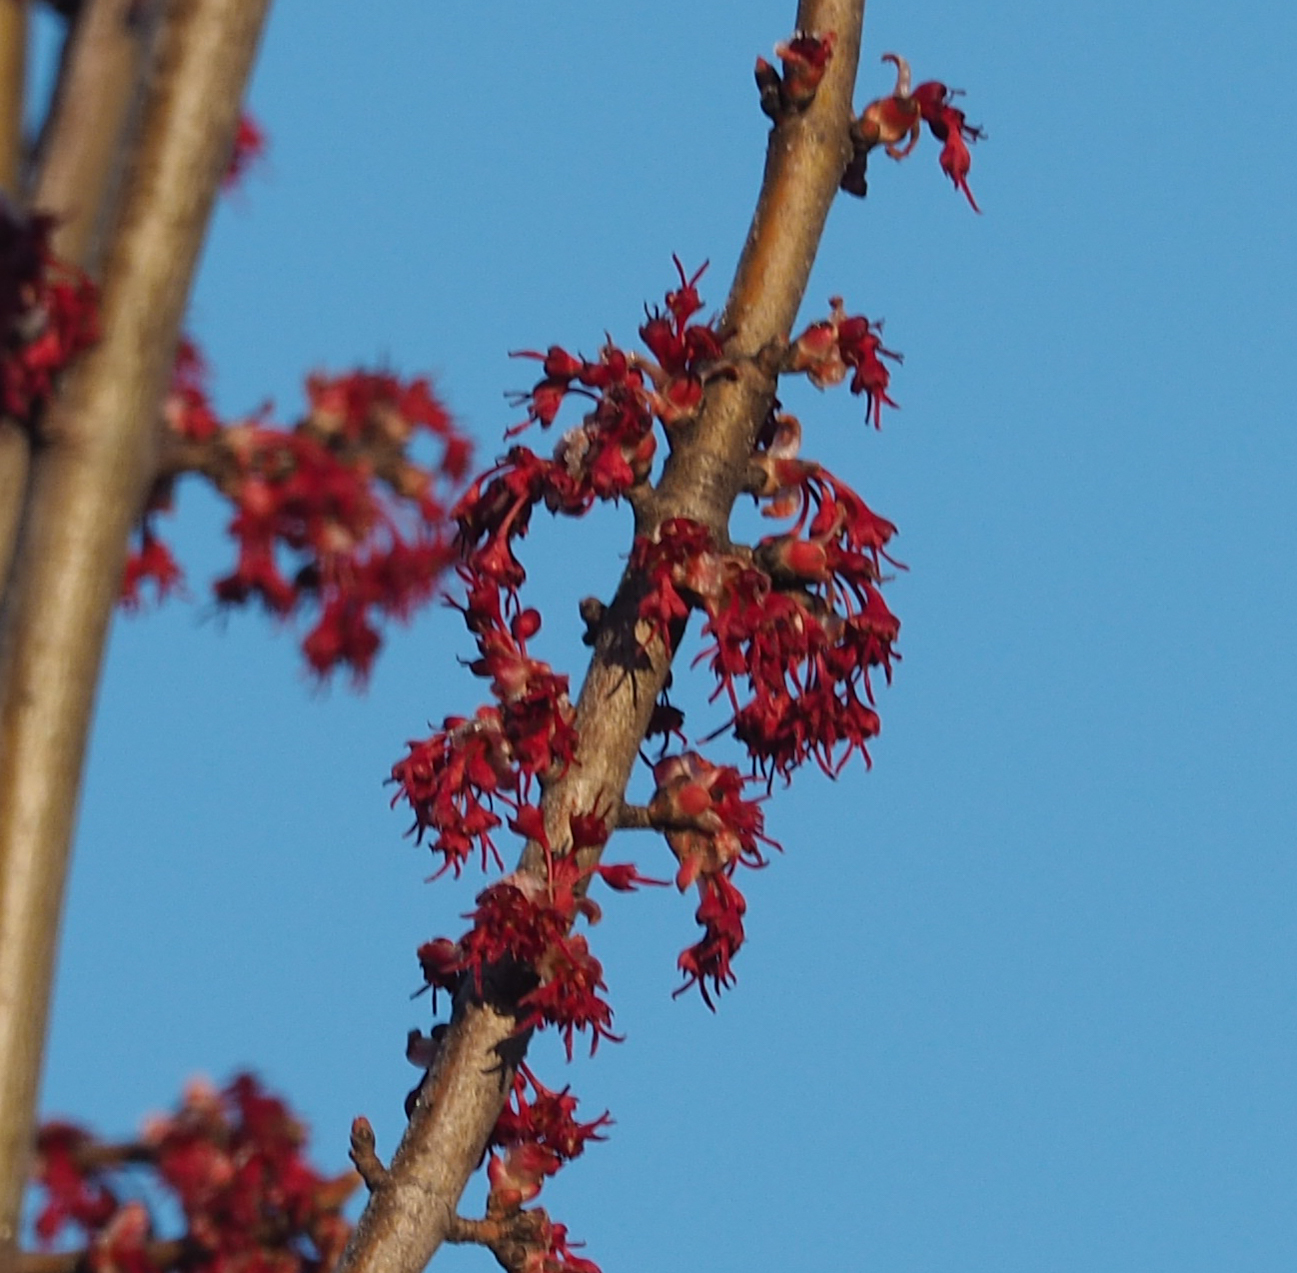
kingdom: Plantae
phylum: Tracheophyta
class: Magnoliopsida
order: Sapindales
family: Sapindaceae
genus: Acer
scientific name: Acer rubrum
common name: Red maple
